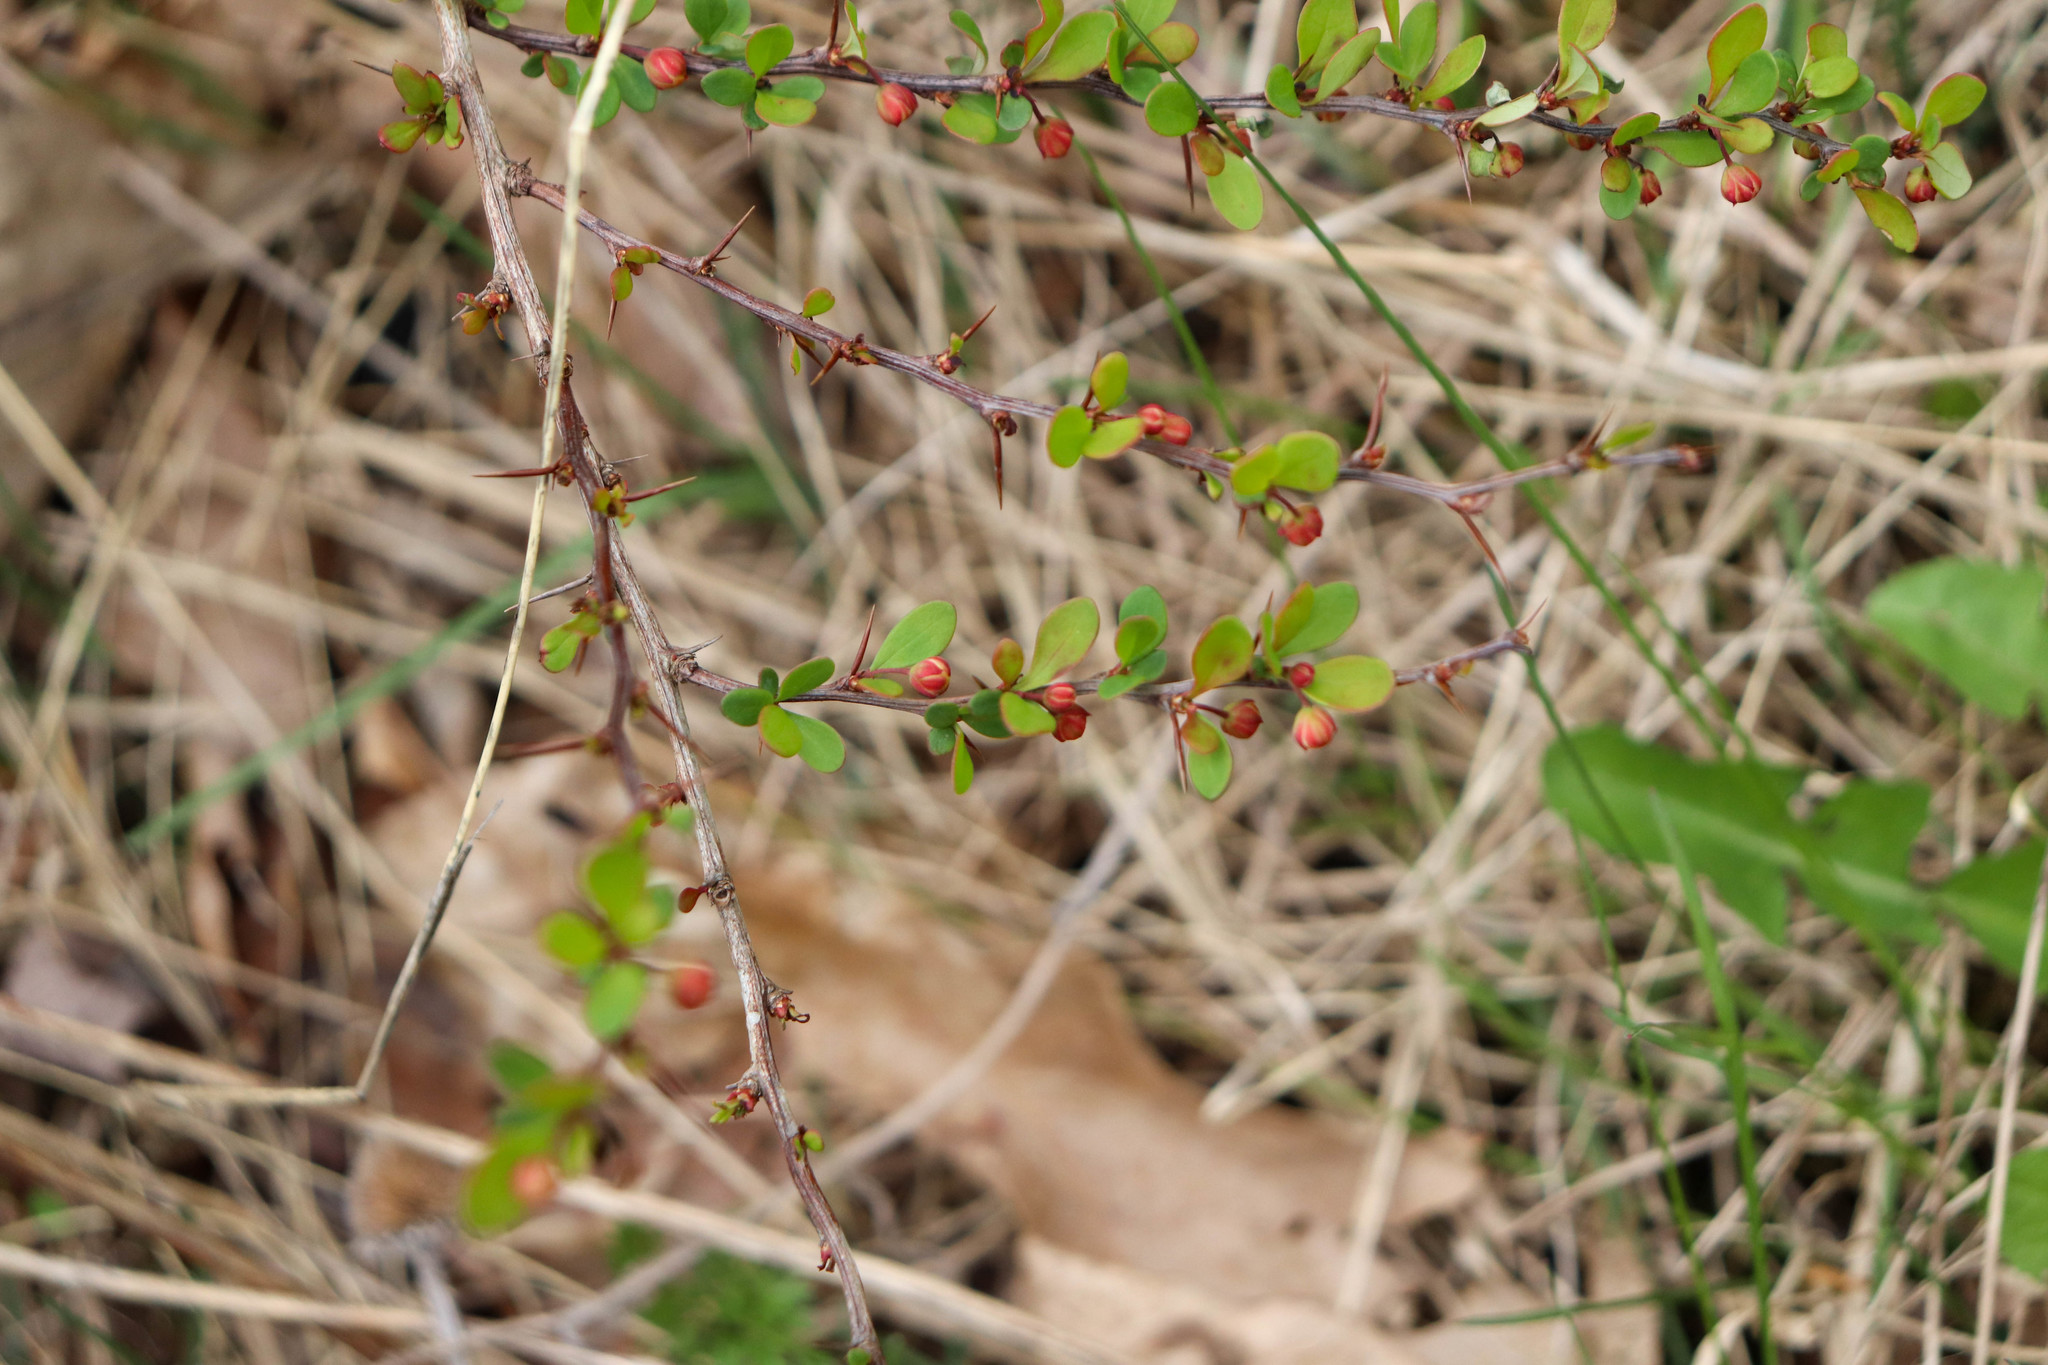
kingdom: Plantae
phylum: Tracheophyta
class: Magnoliopsida
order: Ranunculales
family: Berberidaceae
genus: Berberis
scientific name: Berberis thunbergii
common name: Japanese barberry
